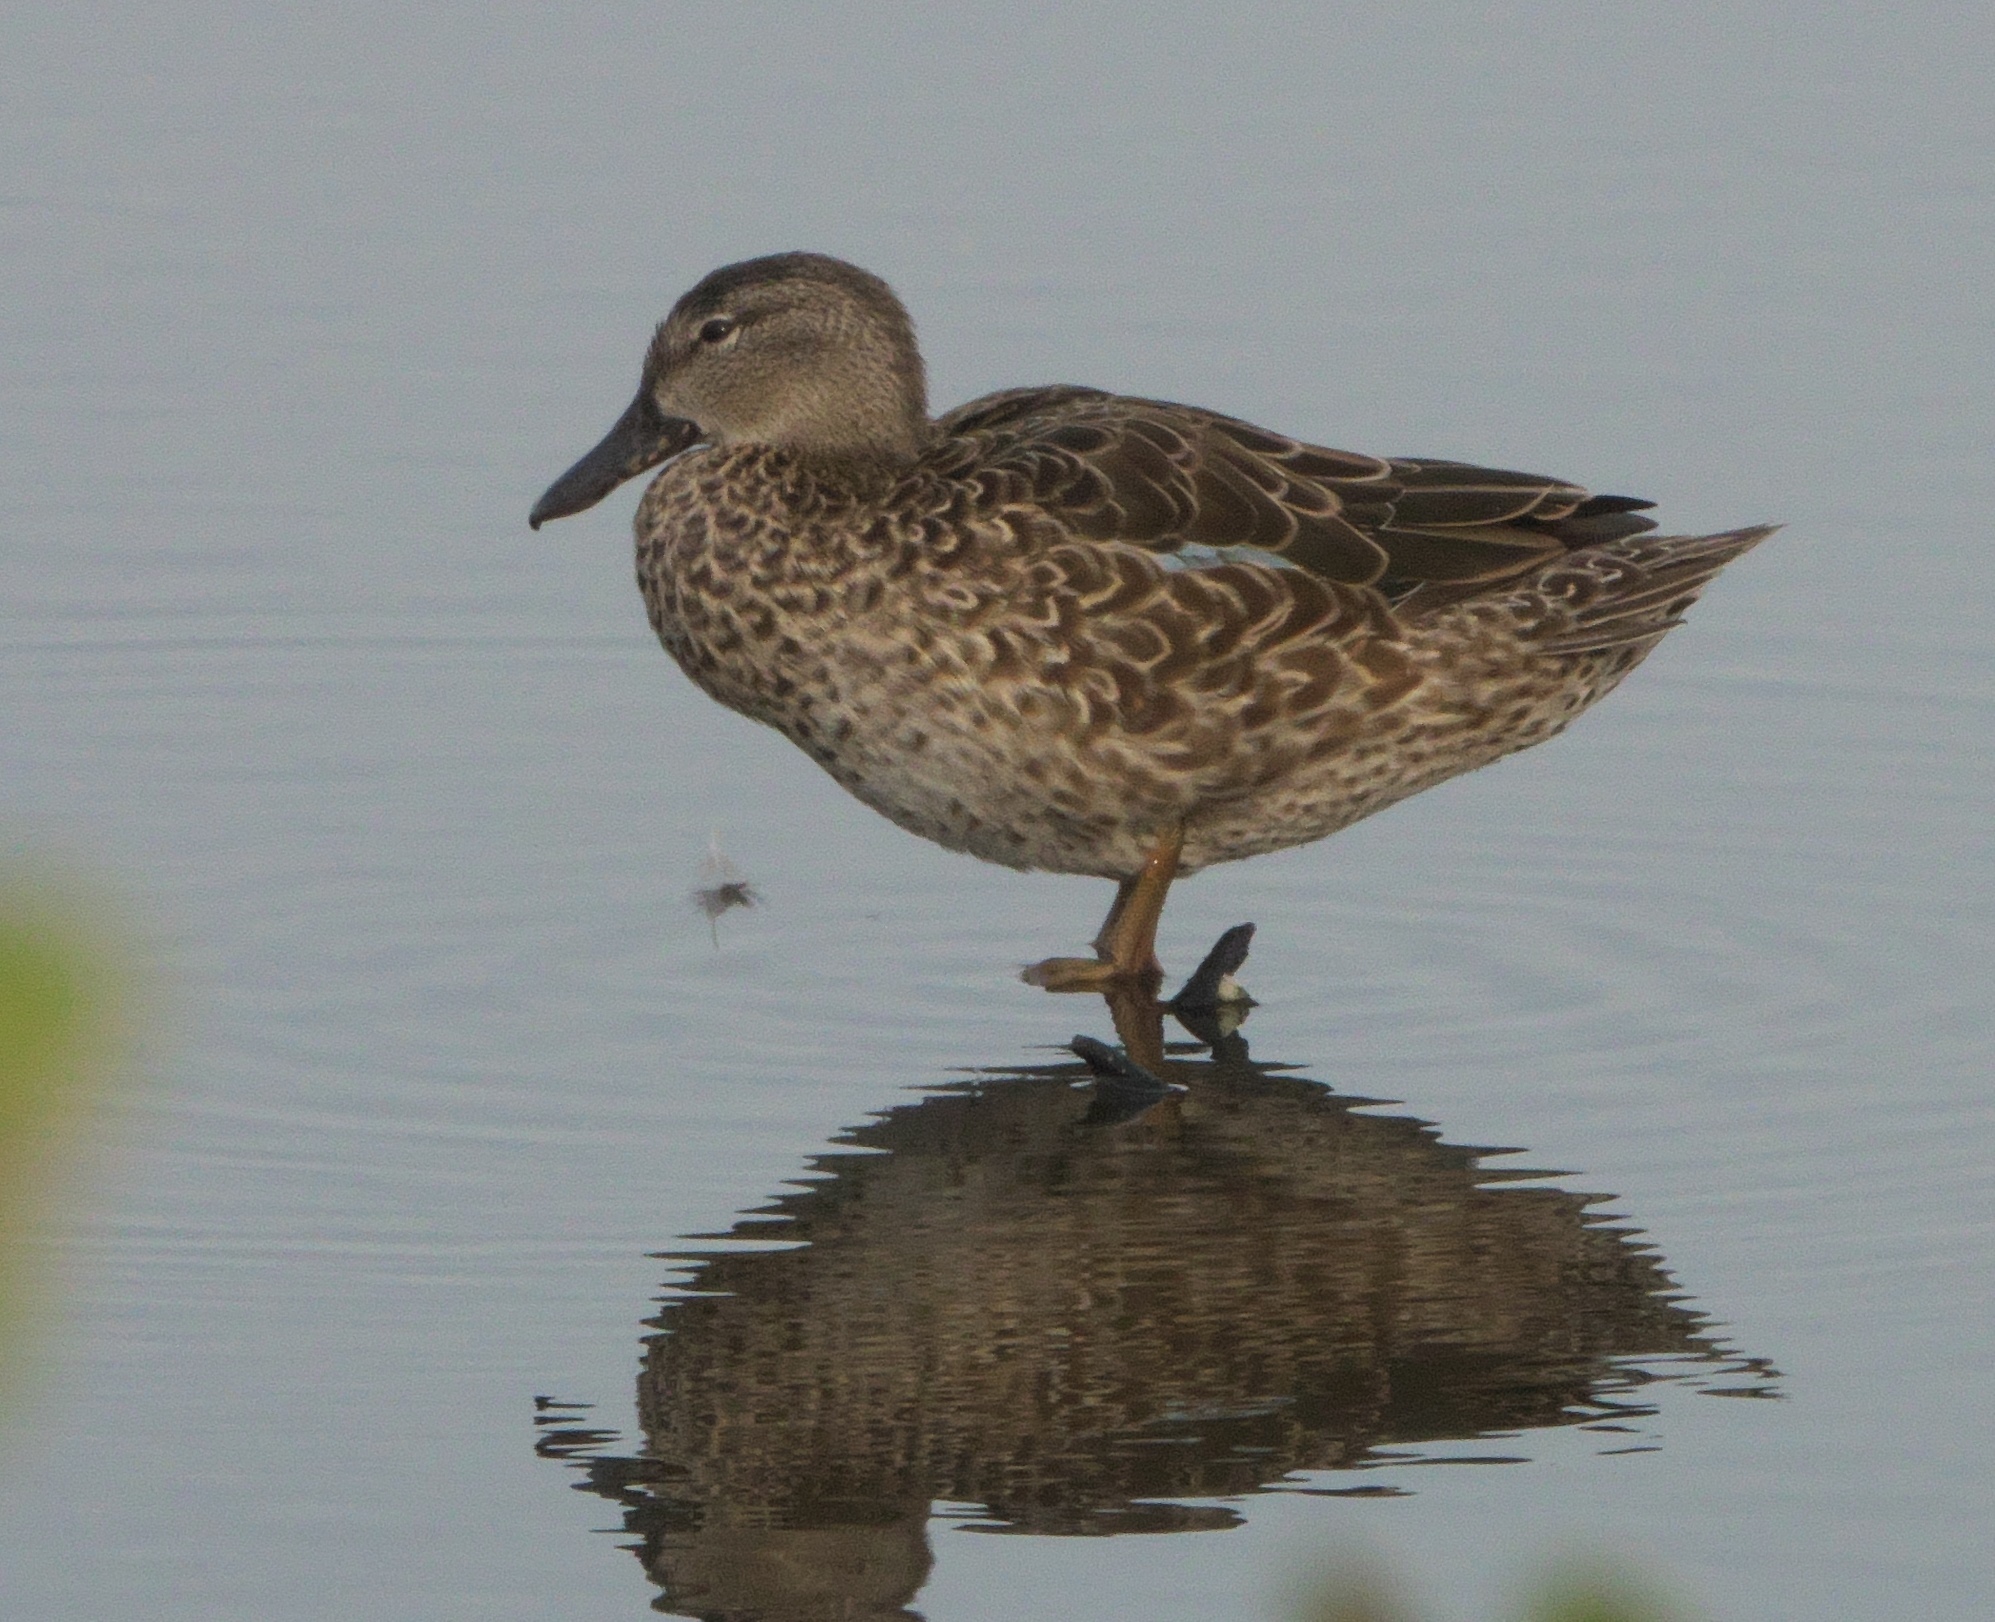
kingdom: Animalia
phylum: Chordata
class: Aves
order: Anseriformes
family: Anatidae
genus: Spatula
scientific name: Spatula discors
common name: Blue-winged teal
